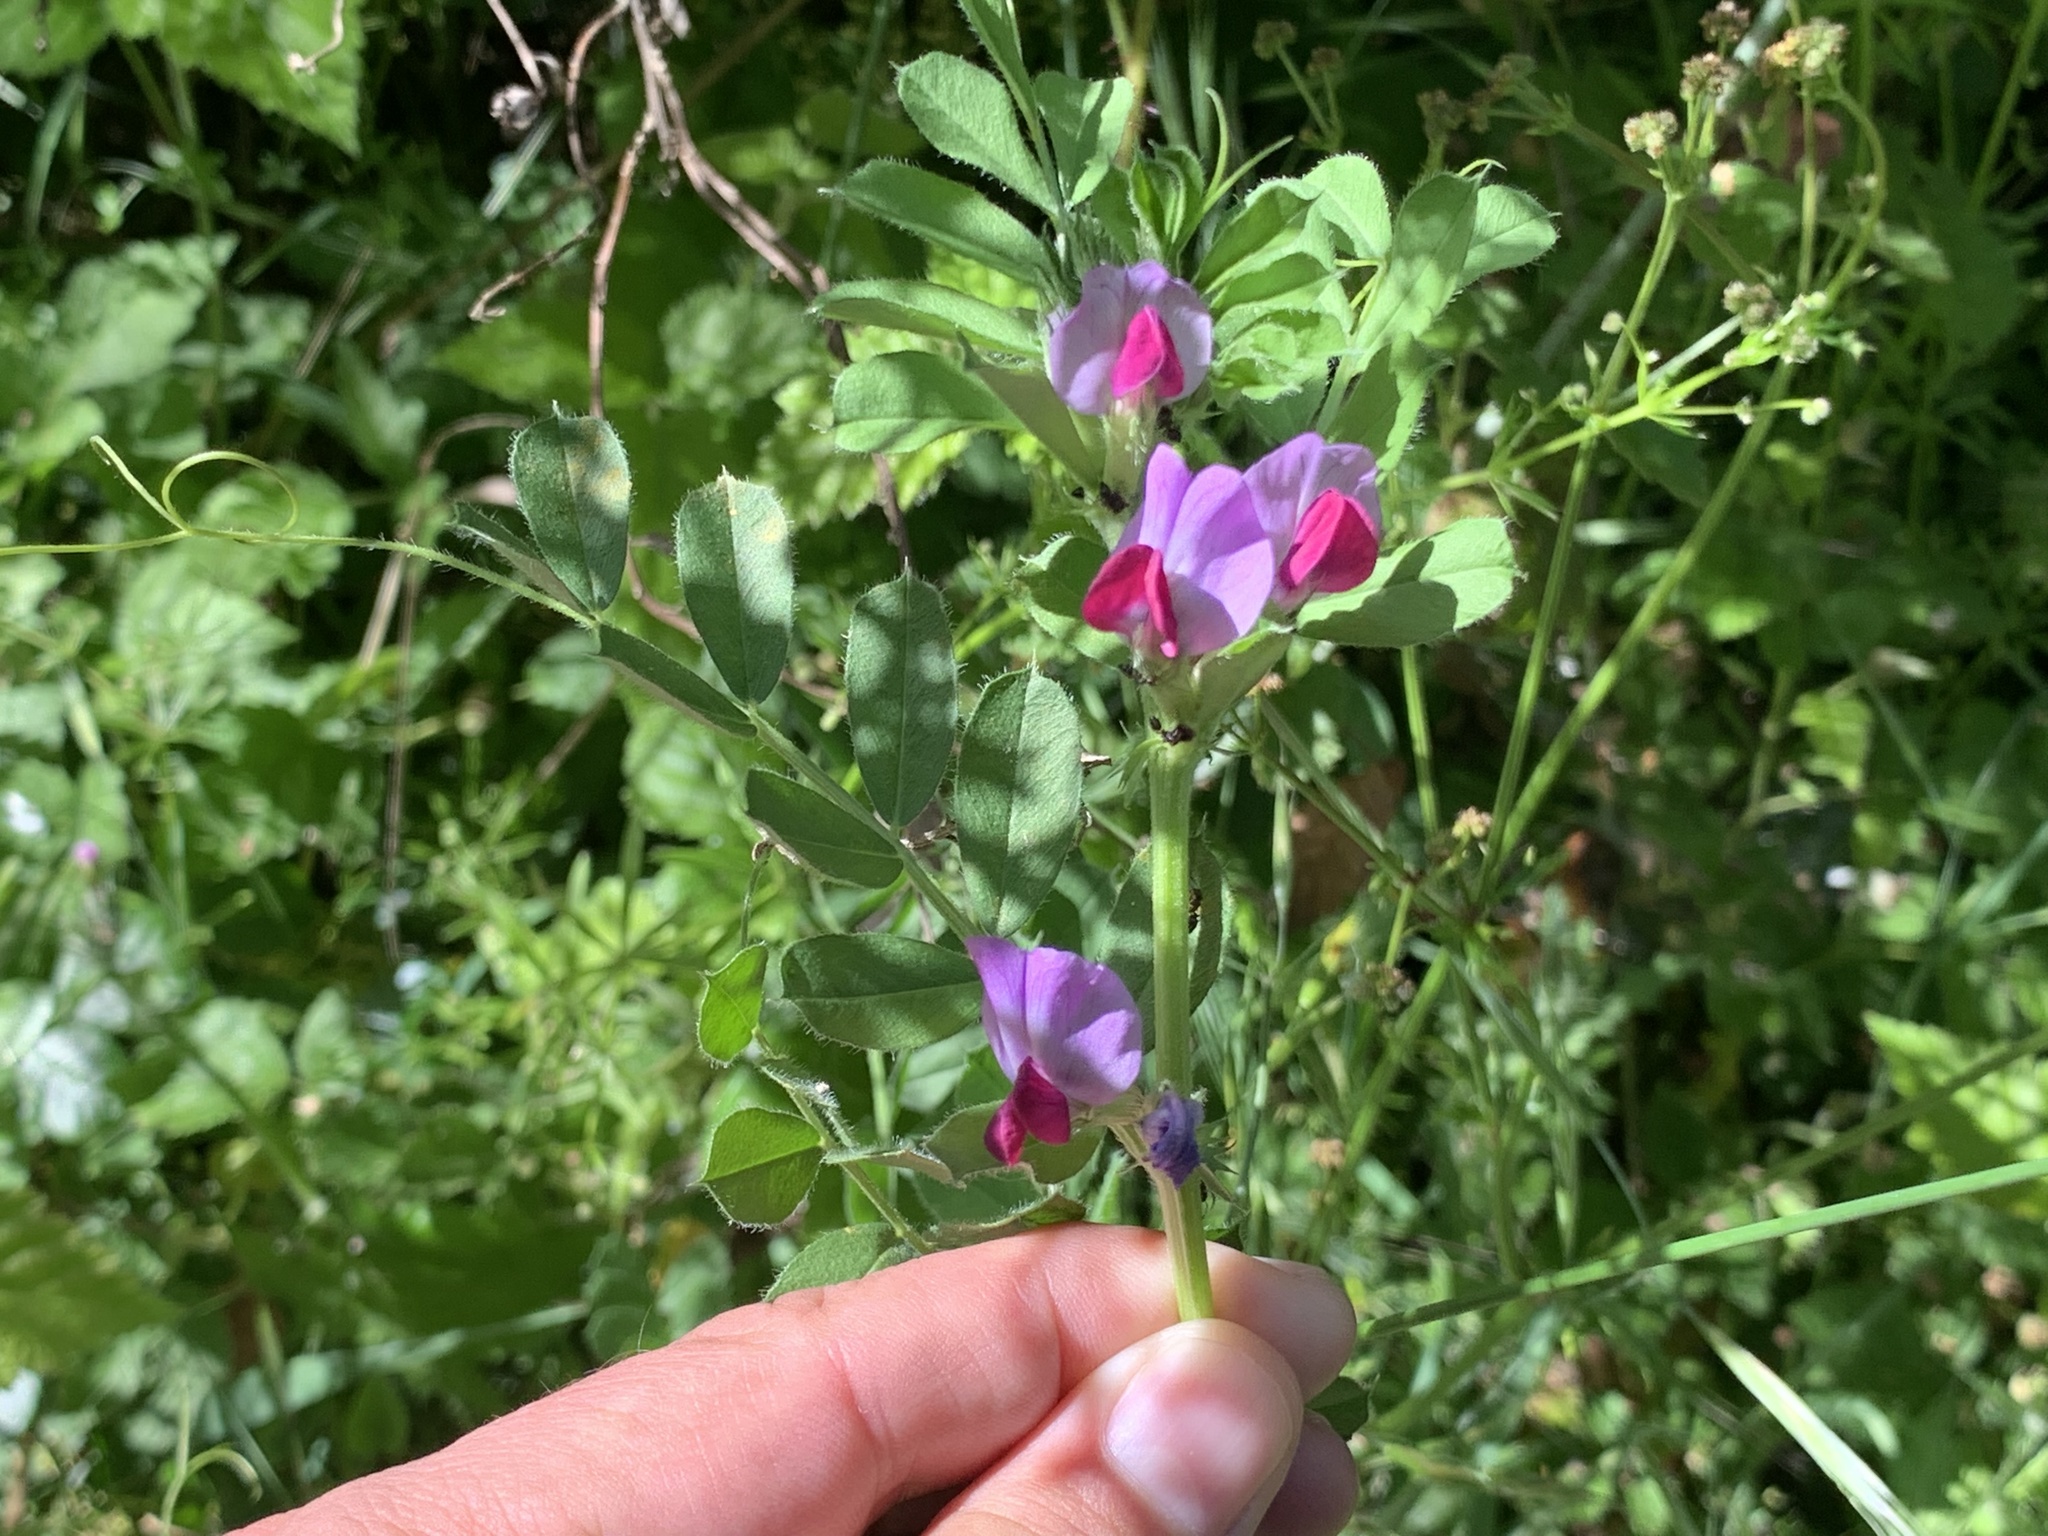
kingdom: Plantae
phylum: Tracheophyta
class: Magnoliopsida
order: Fabales
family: Fabaceae
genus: Vicia
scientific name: Vicia sativa
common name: Garden vetch
